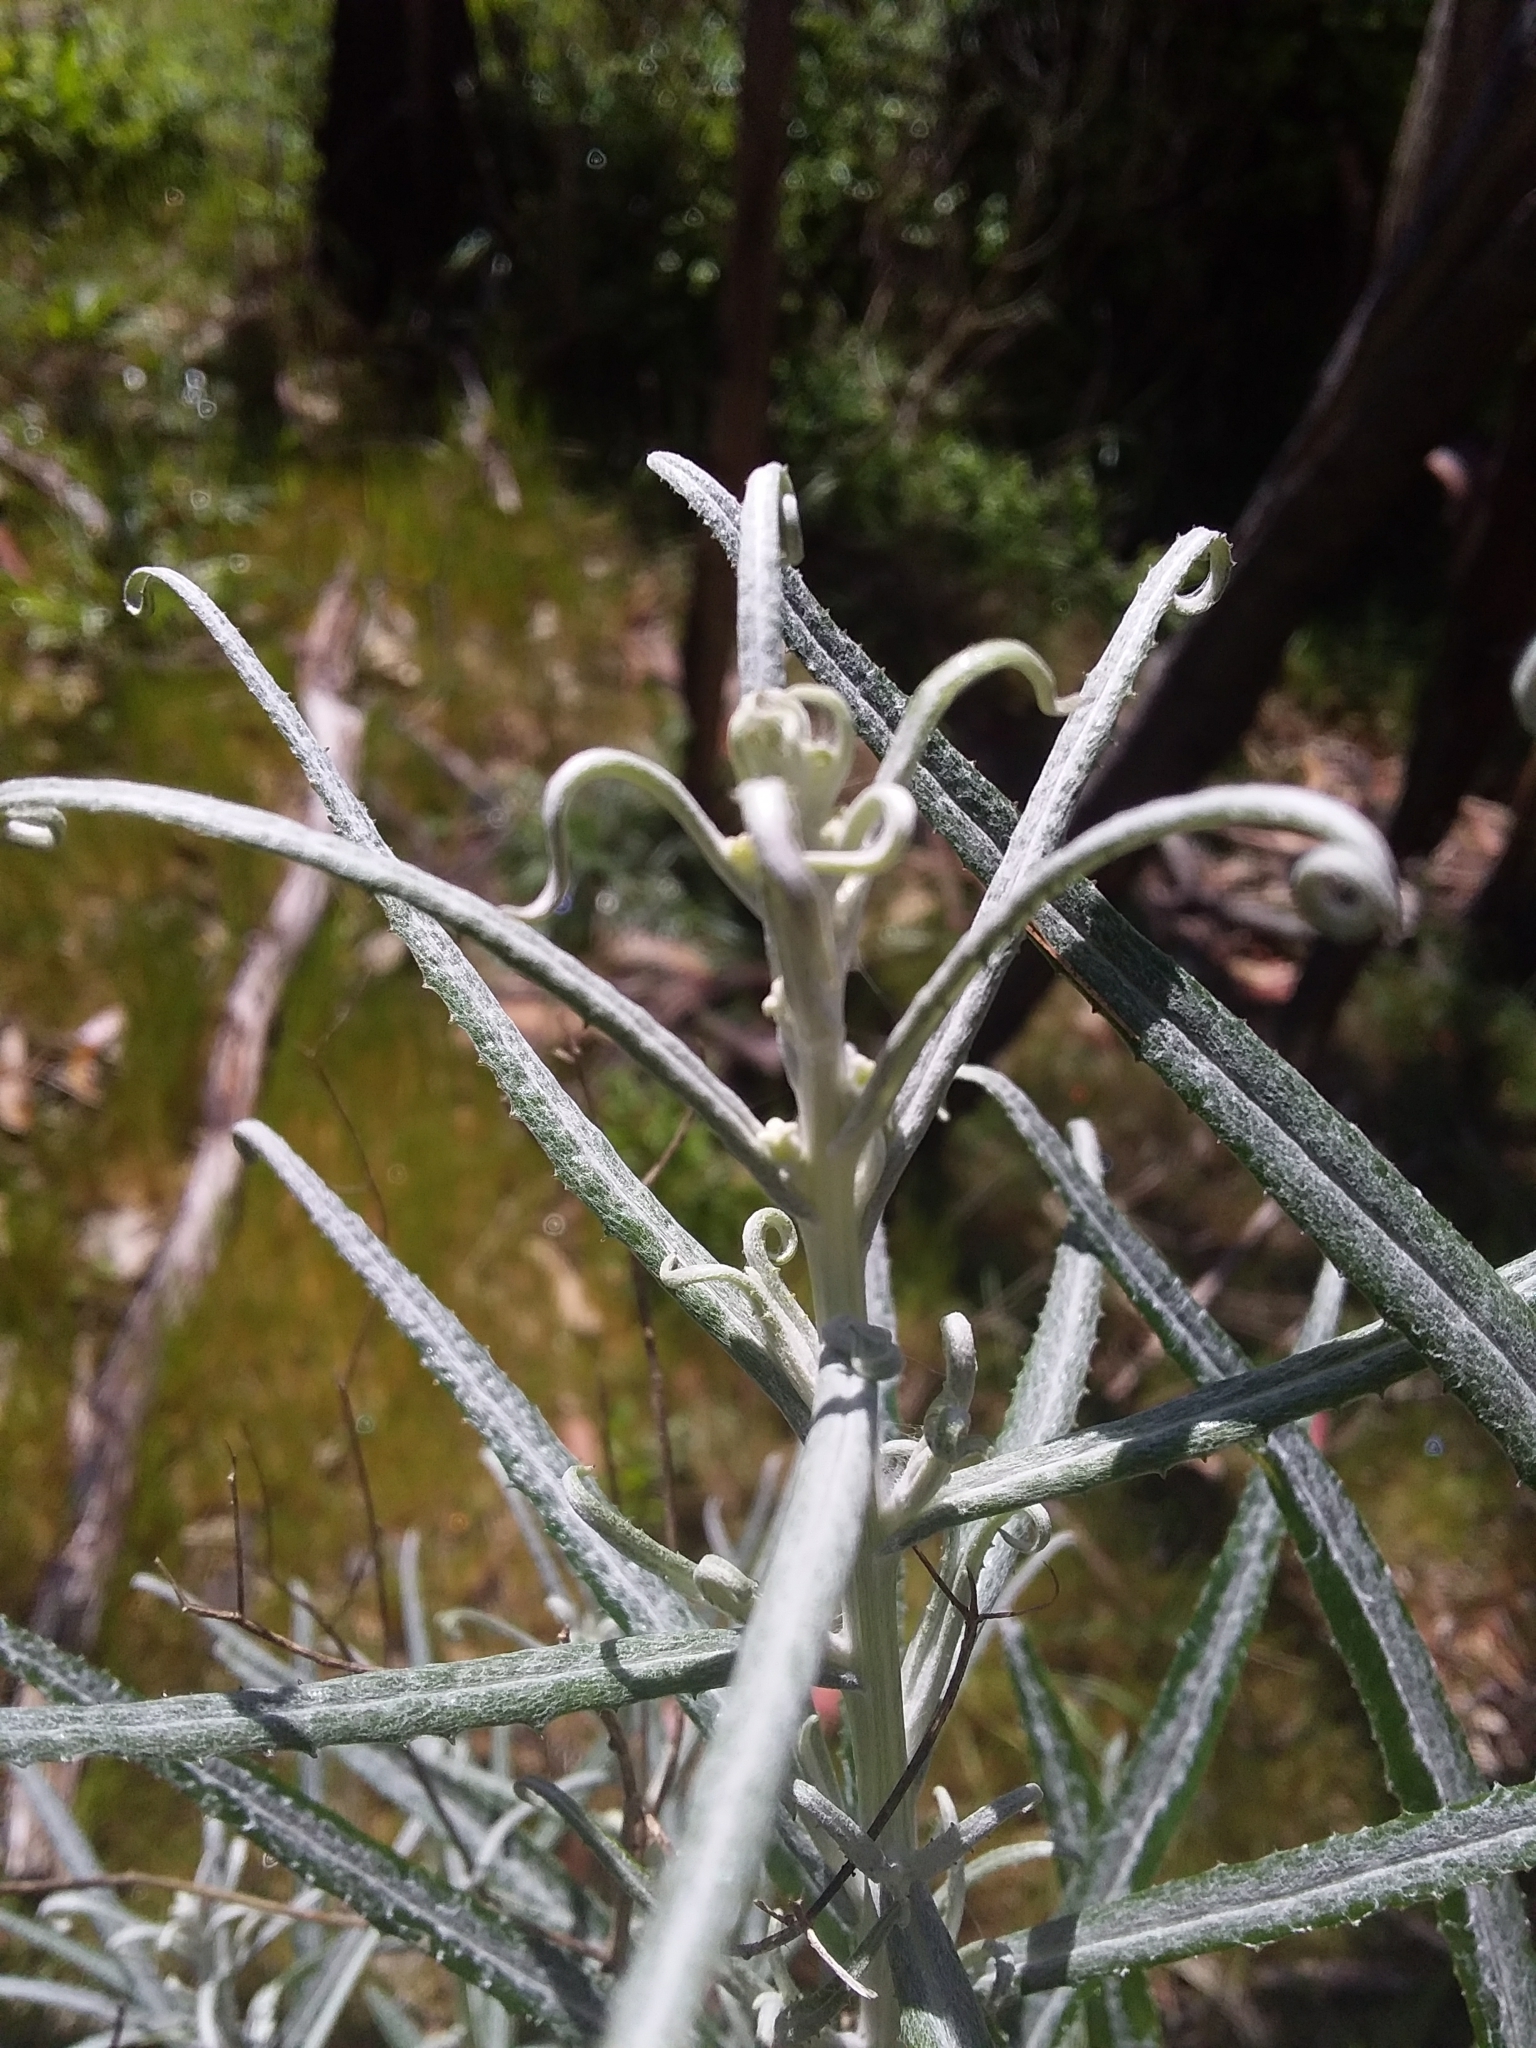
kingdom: Plantae
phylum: Tracheophyta
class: Magnoliopsida
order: Asterales
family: Asteraceae
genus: Senecio
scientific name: Senecio quadridentatus
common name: Cotton fireweed
